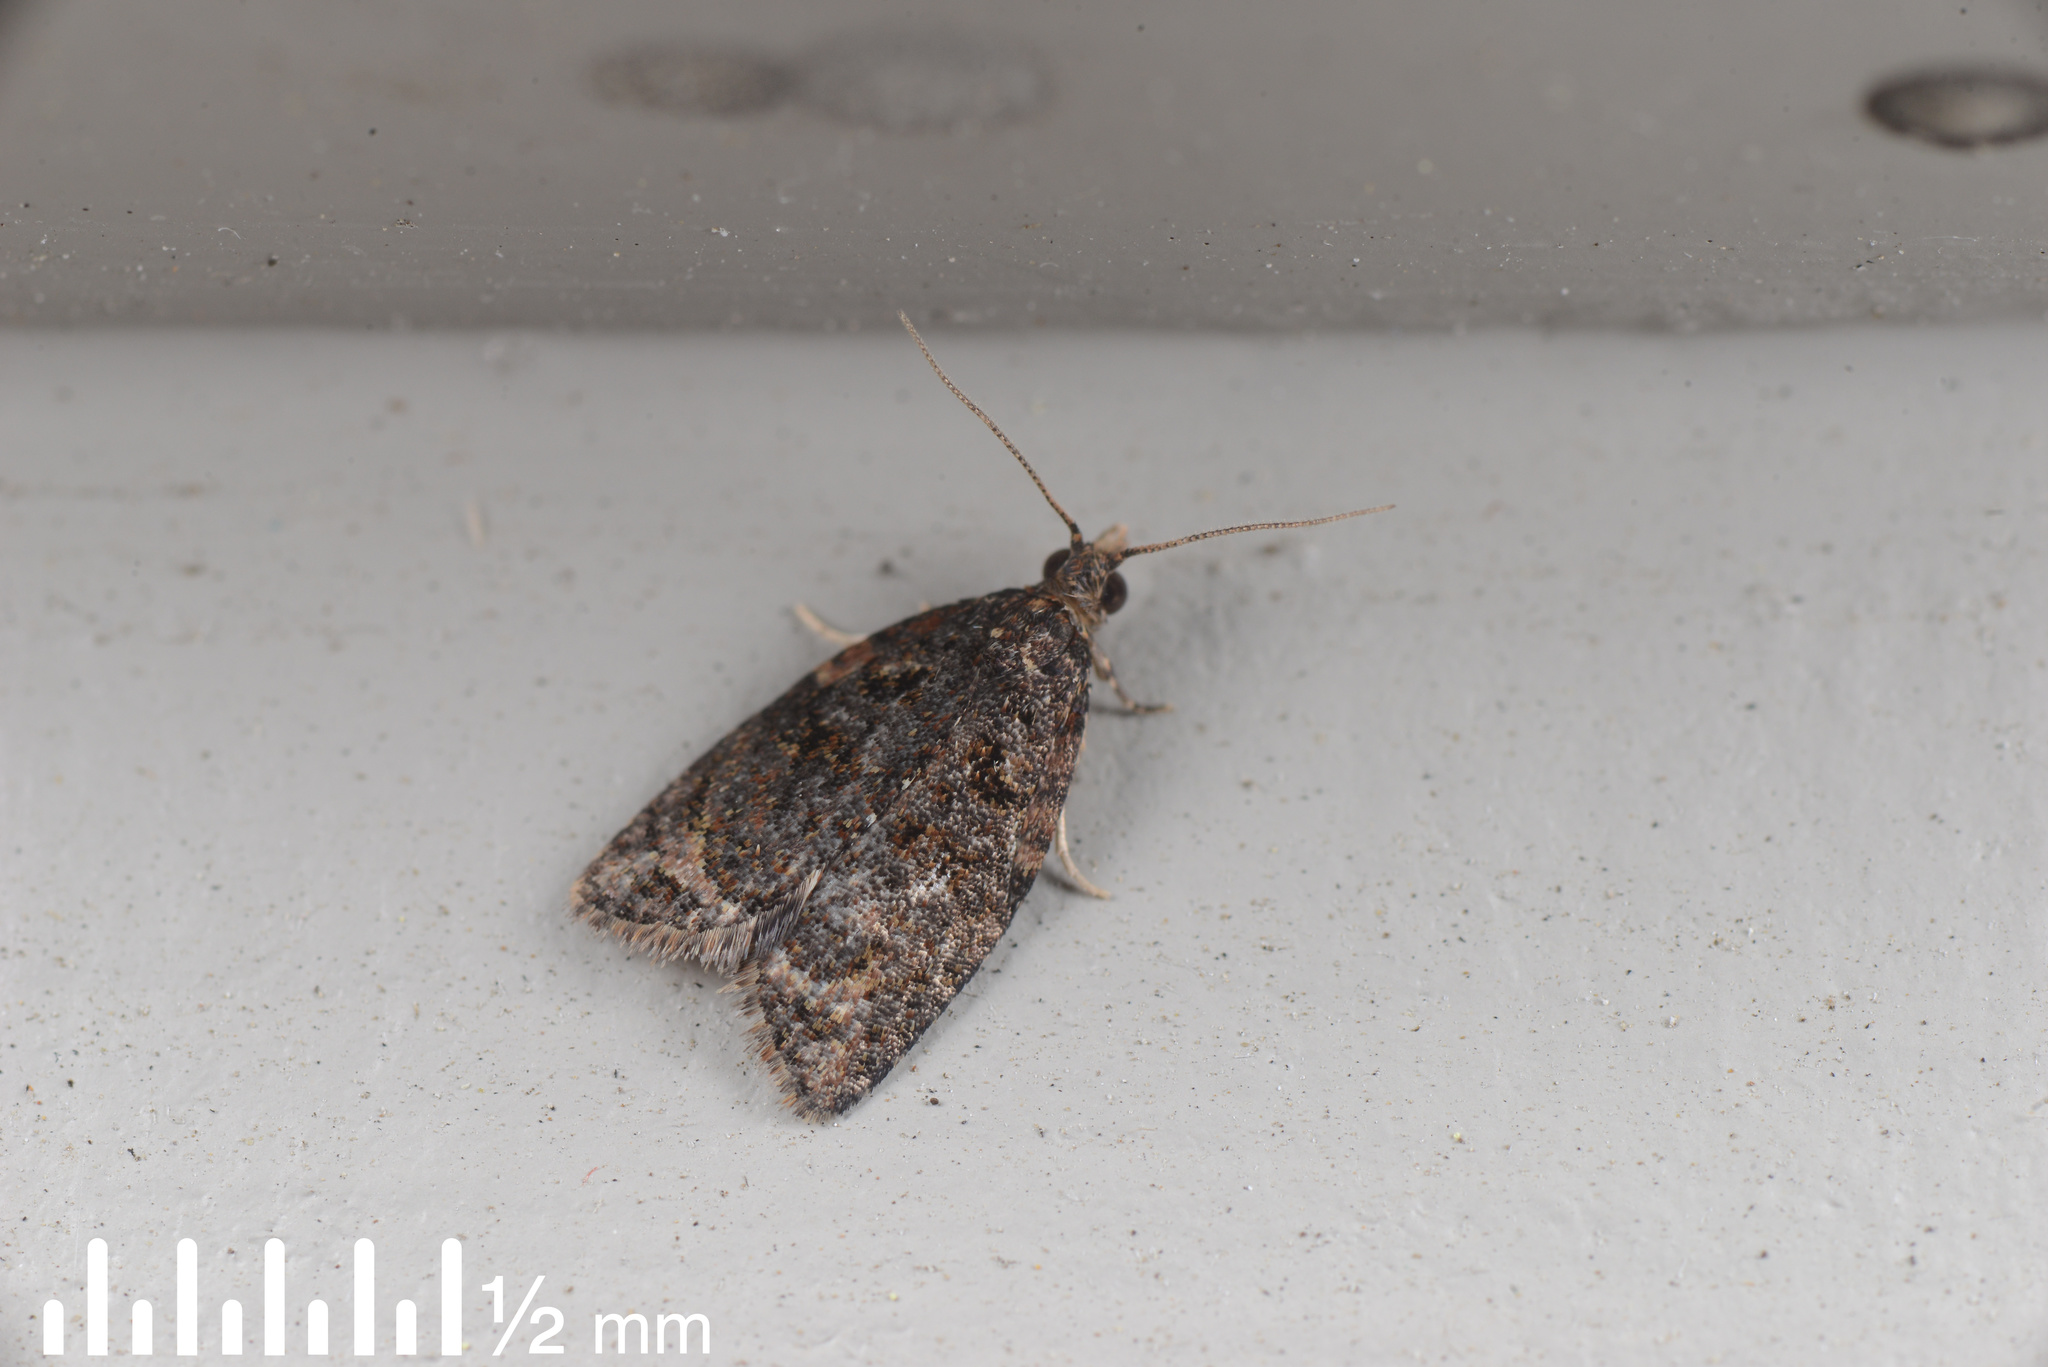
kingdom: Animalia
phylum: Arthropoda
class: Insecta
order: Lepidoptera
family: Tortricidae
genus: Capua
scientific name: Capua intractana
